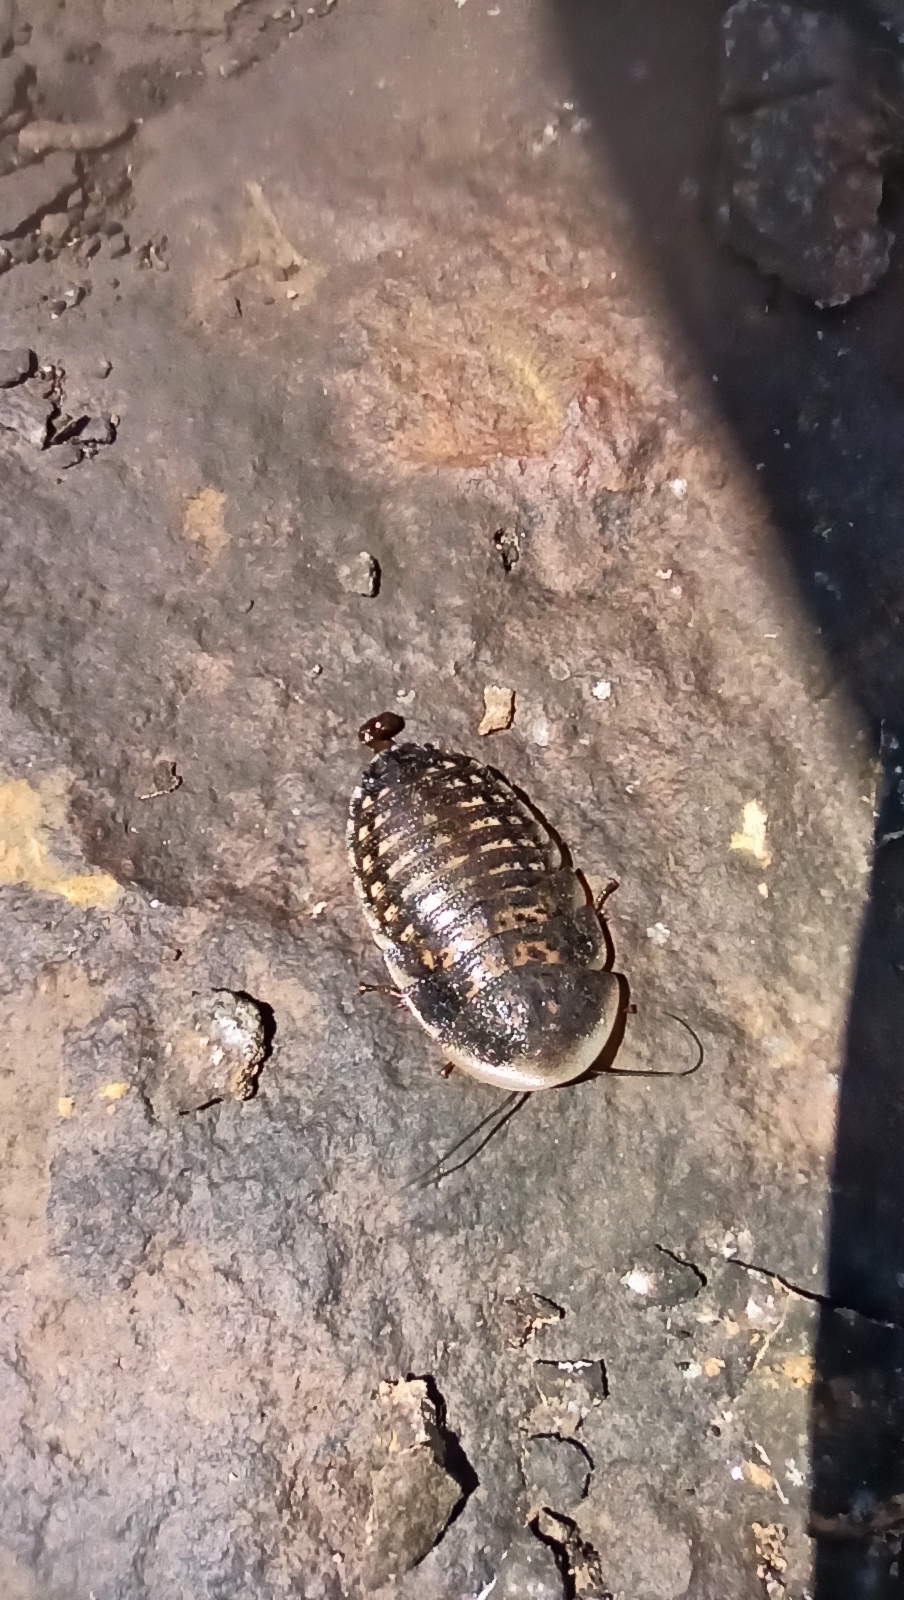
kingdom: Animalia
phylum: Arthropoda
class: Insecta
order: Blattodea
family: Blaberidae
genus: Blaptica
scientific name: Blaptica dubia
